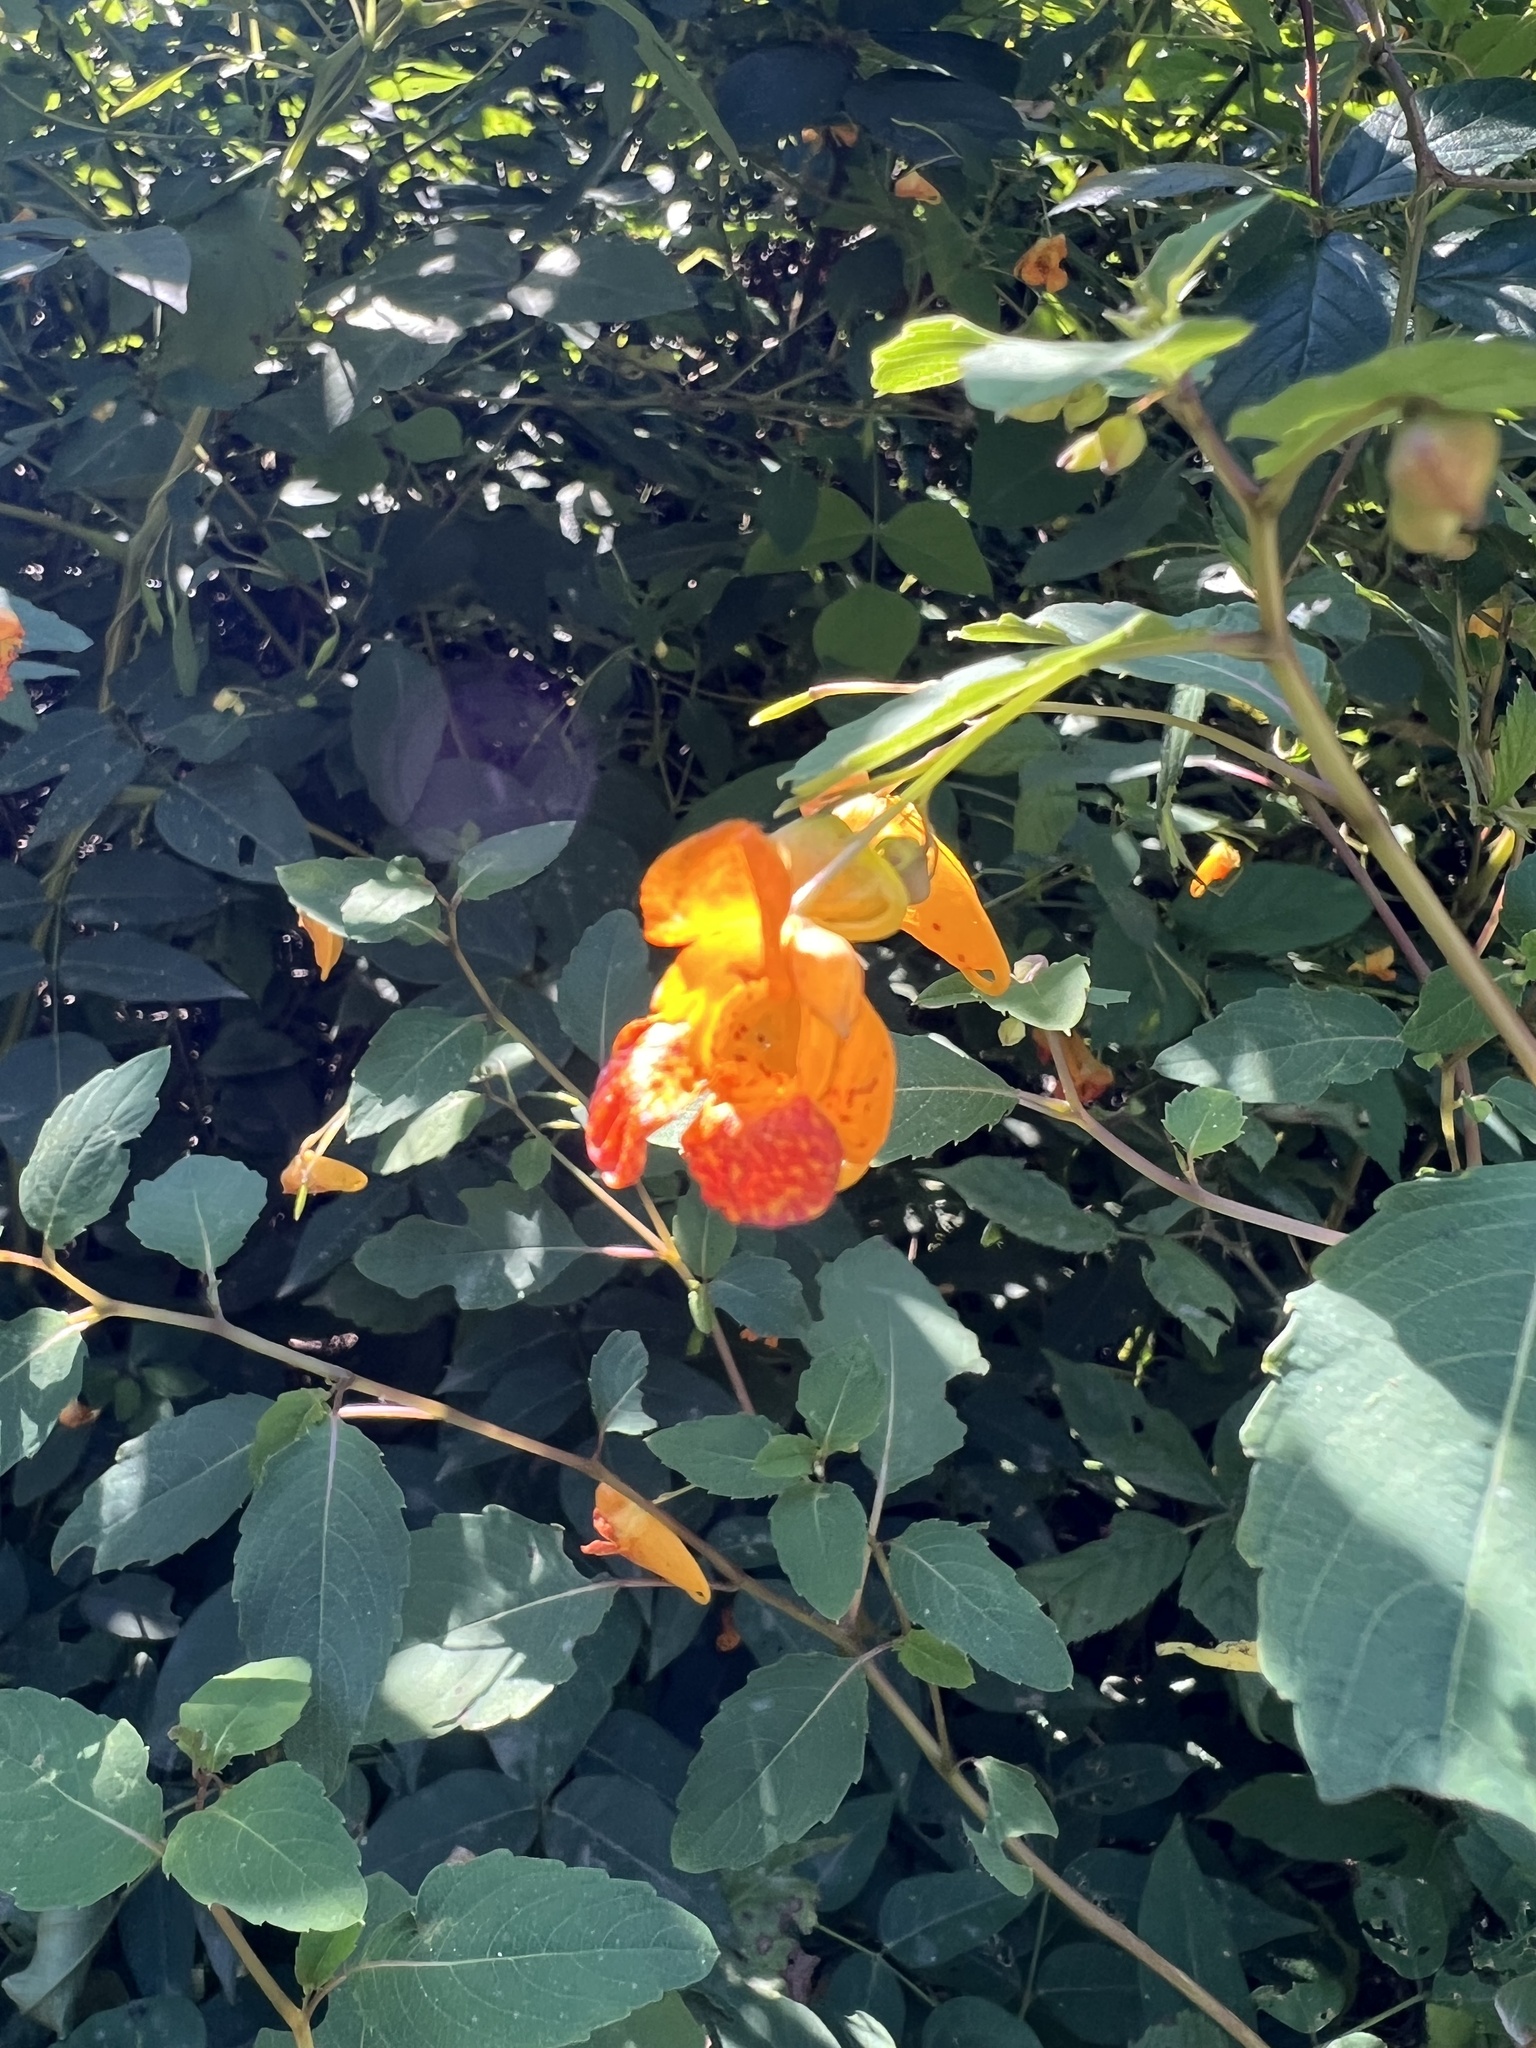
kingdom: Plantae
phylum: Tracheophyta
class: Magnoliopsida
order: Ericales
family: Balsaminaceae
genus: Impatiens
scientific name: Impatiens capensis
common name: Orange balsam
